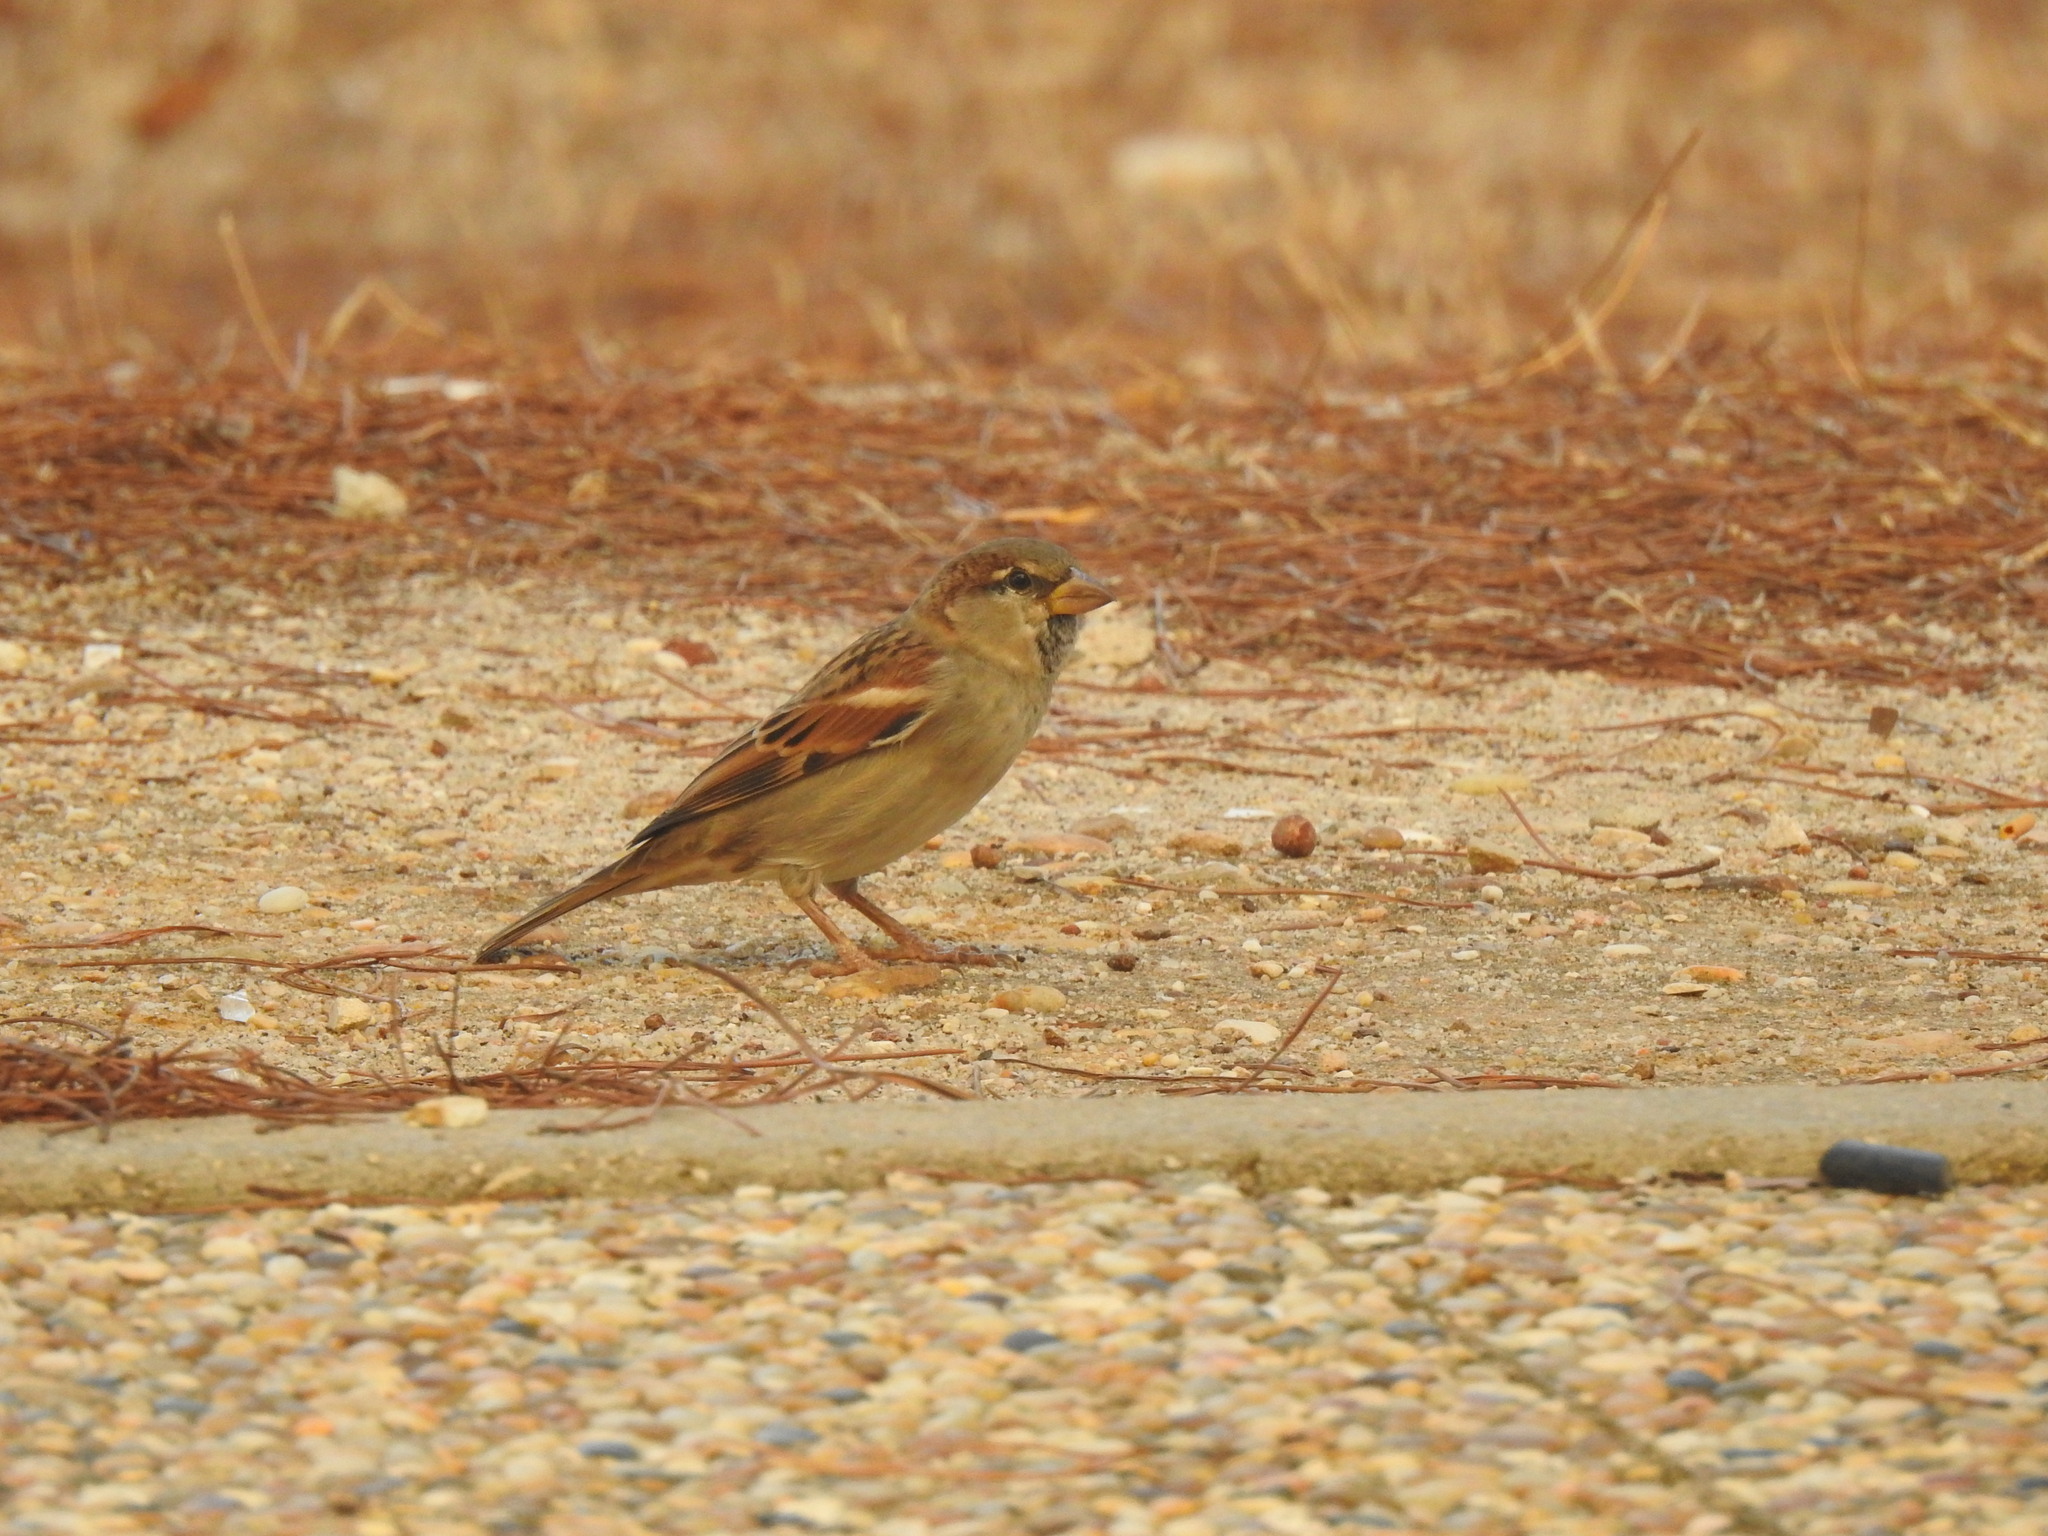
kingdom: Animalia
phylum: Chordata
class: Aves
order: Passeriformes
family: Passeridae
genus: Passer
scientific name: Passer domesticus
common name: House sparrow
